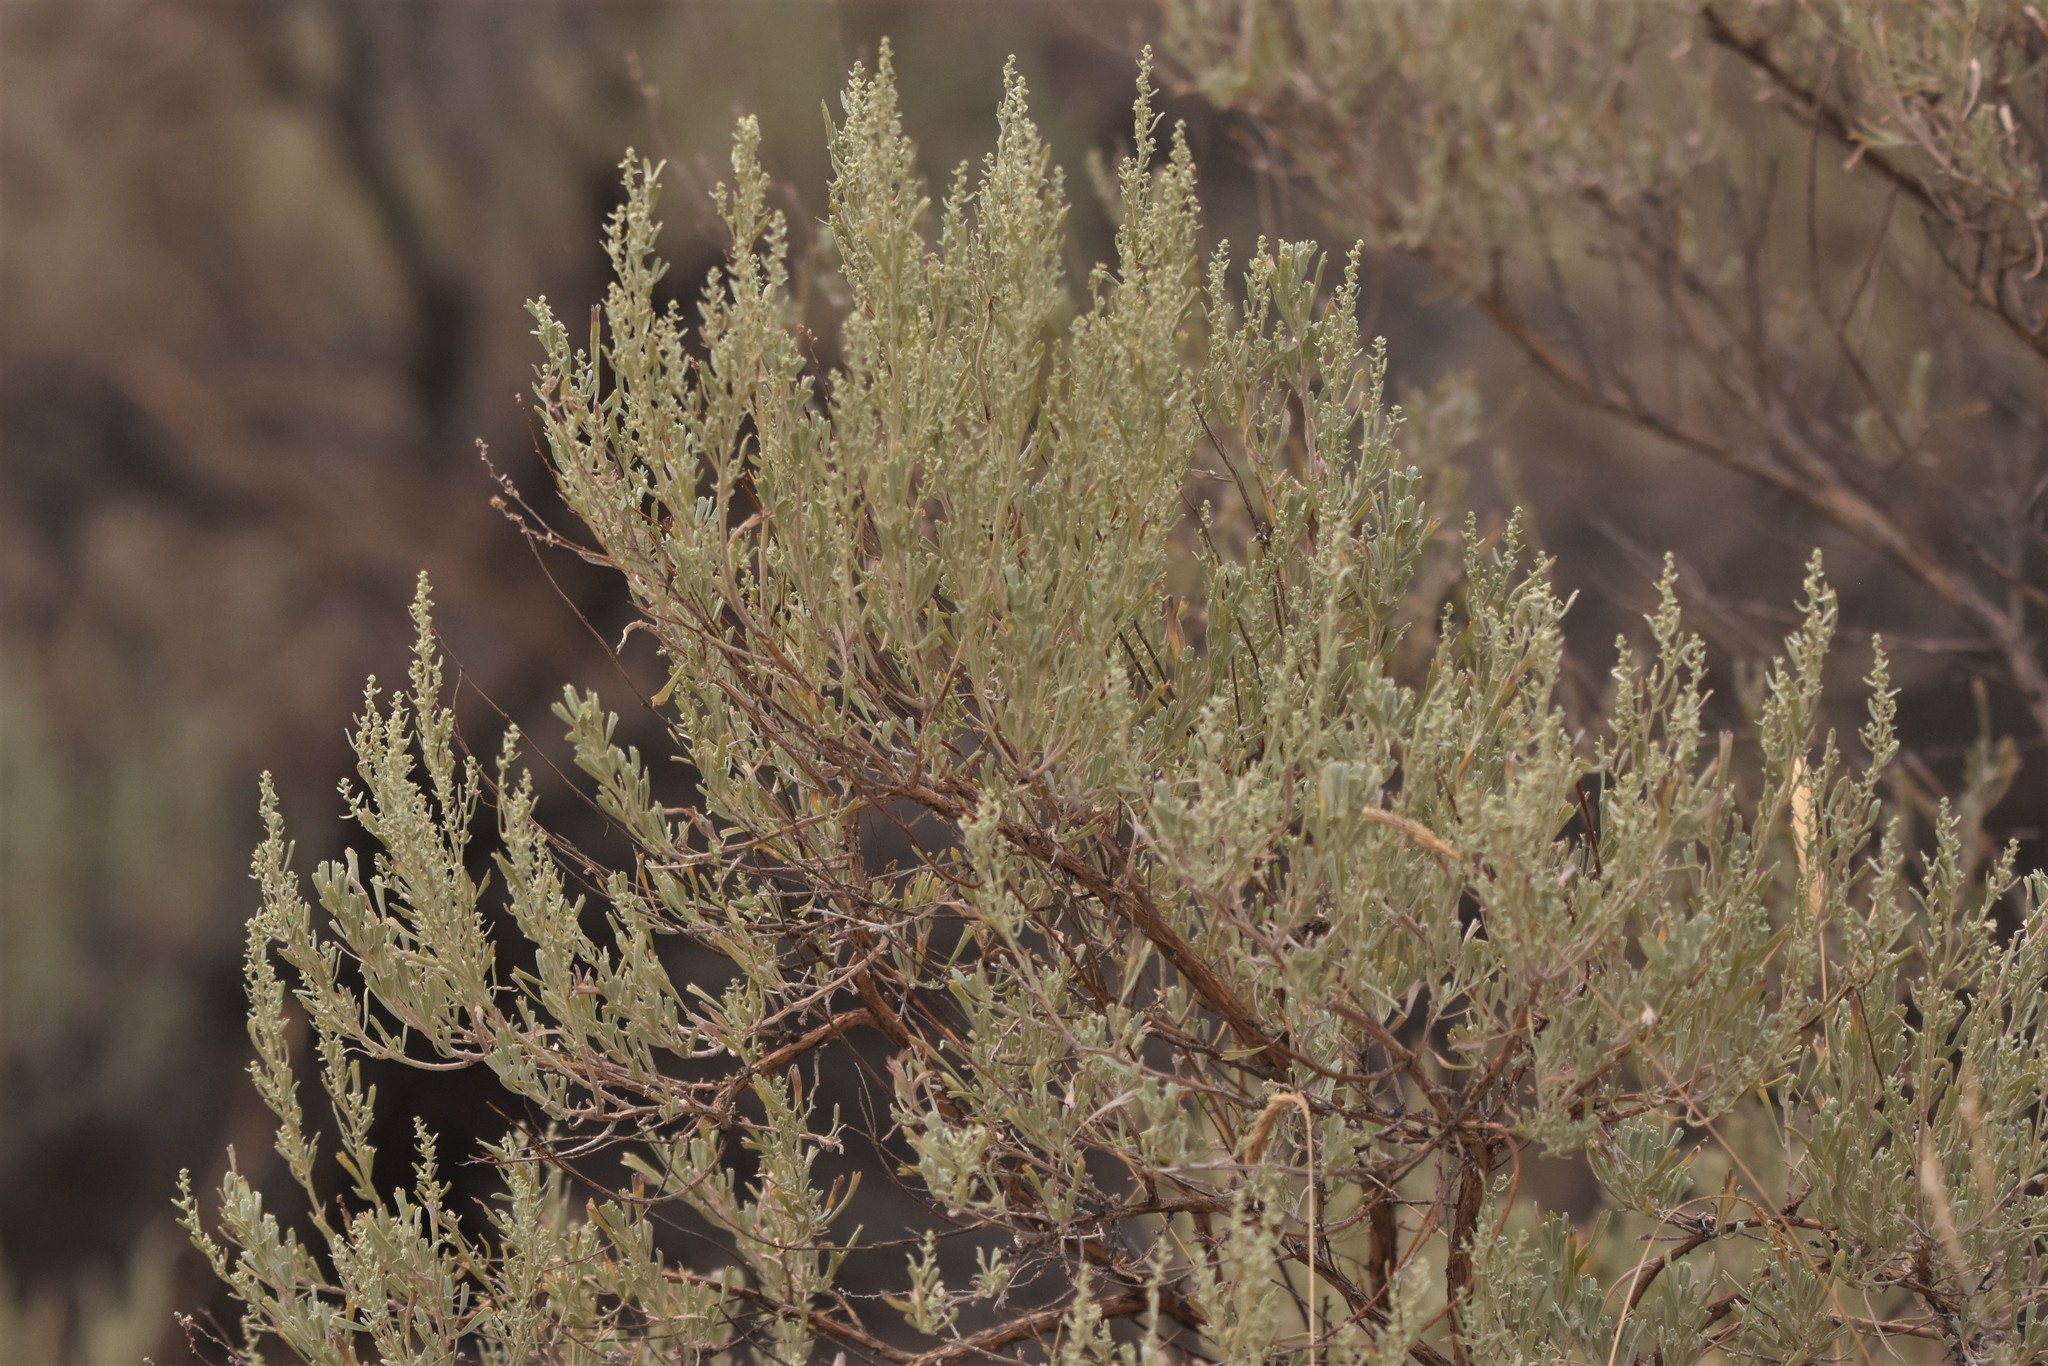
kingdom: Plantae
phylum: Tracheophyta
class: Magnoliopsida
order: Asterales
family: Asteraceae
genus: Artemisia
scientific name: Artemisia tridentata
